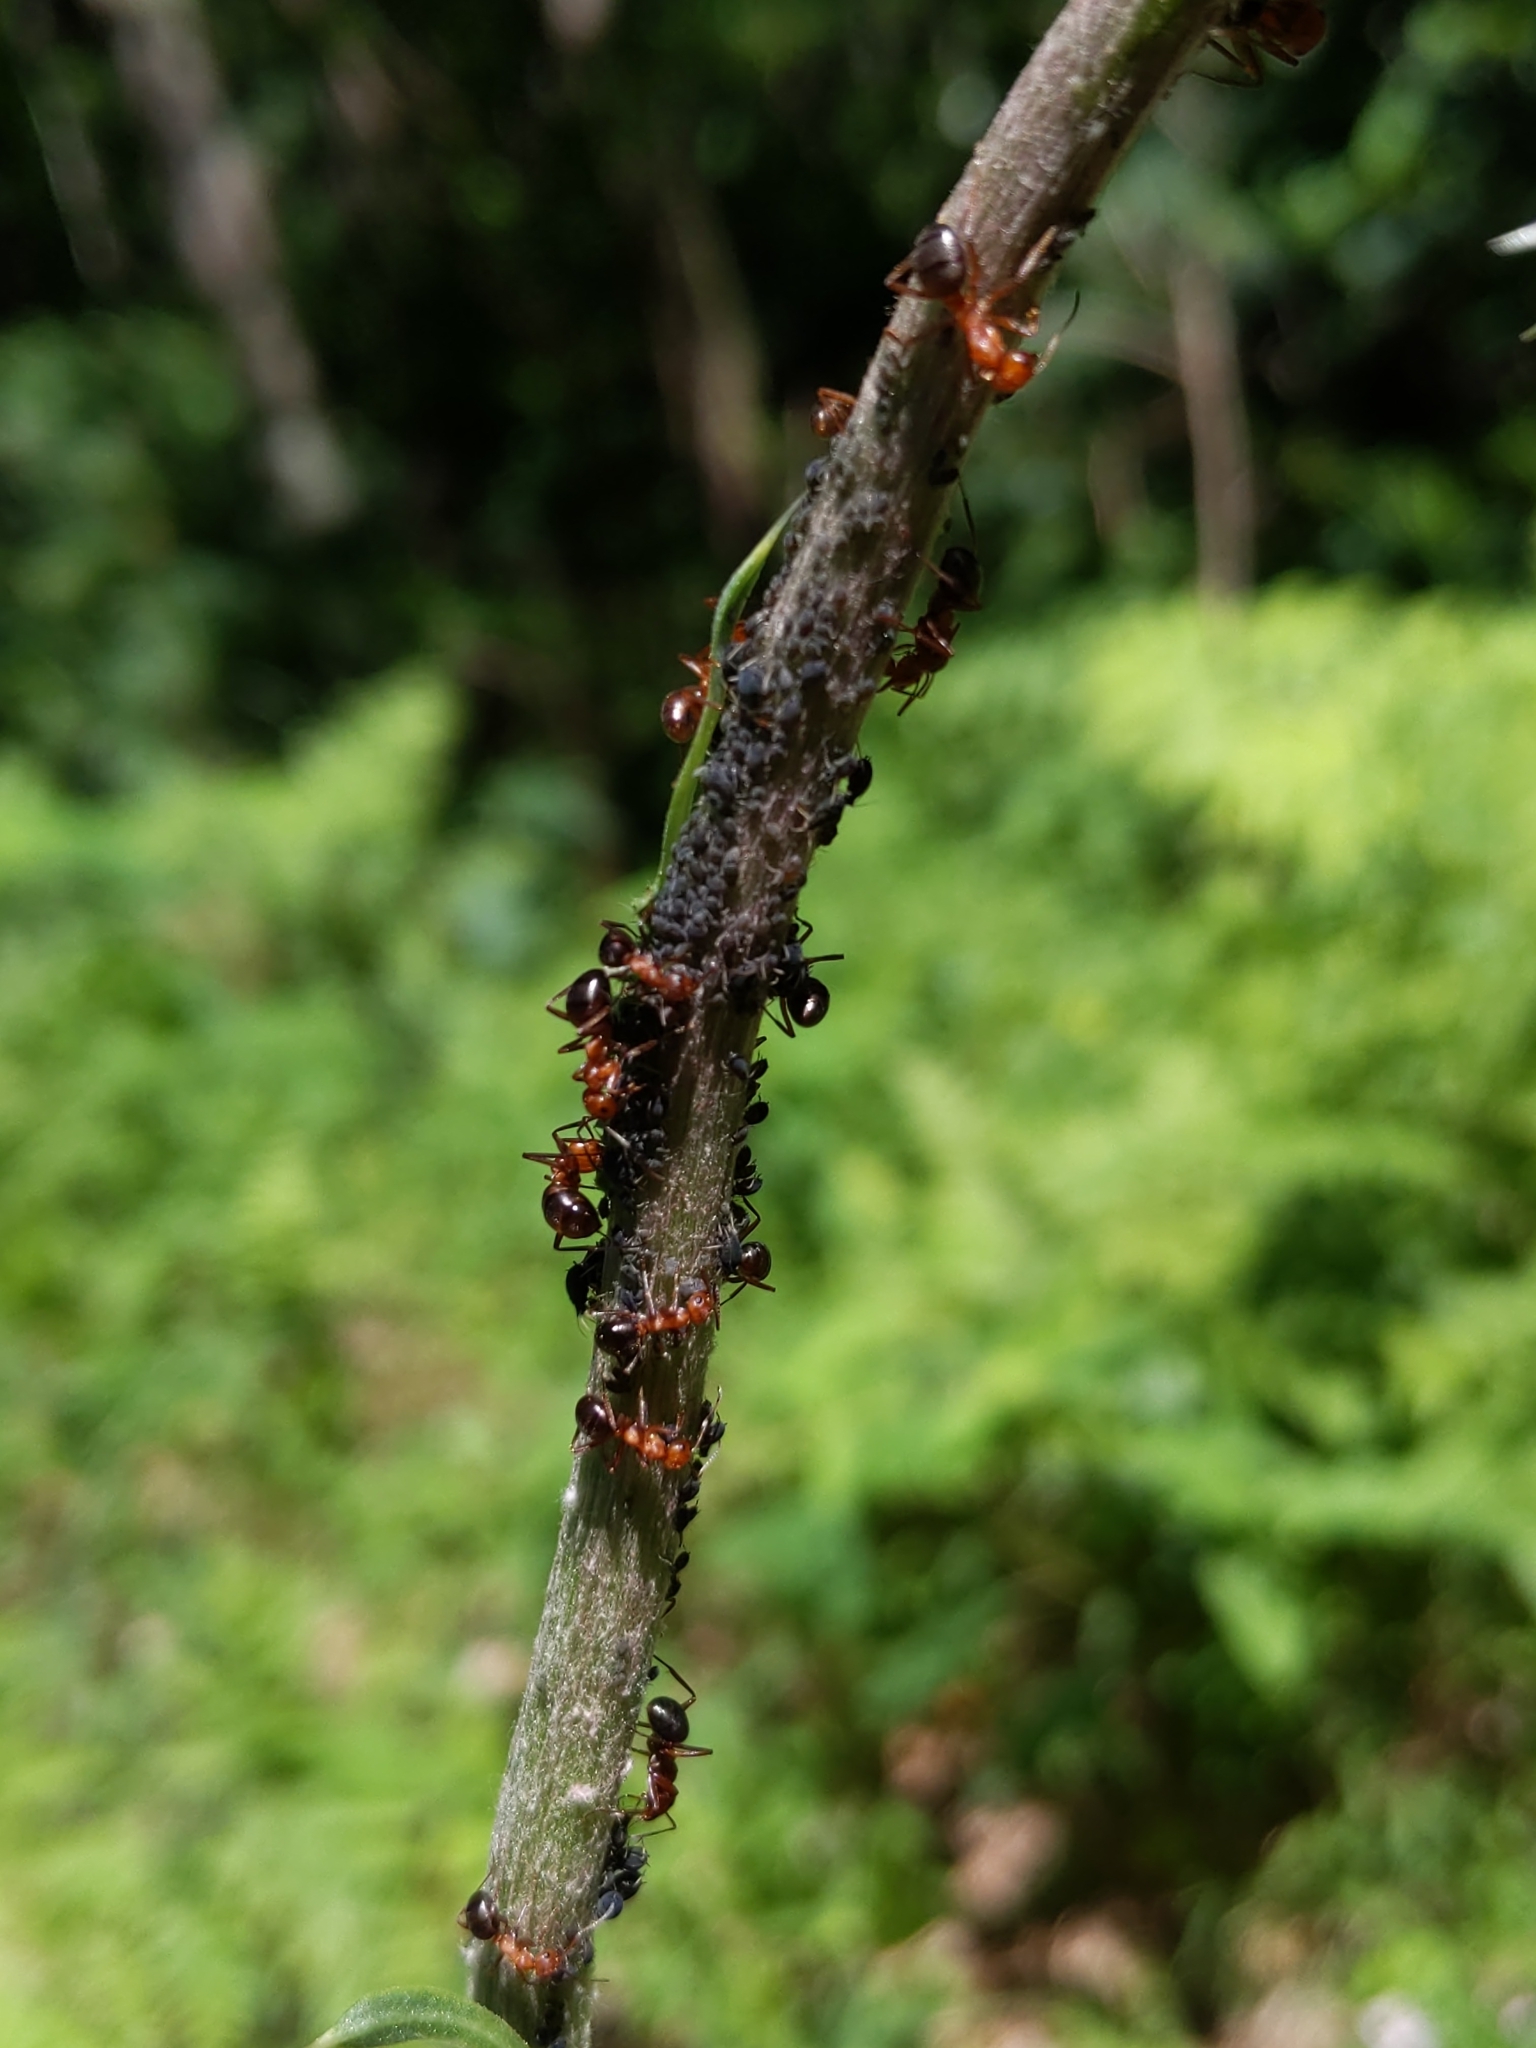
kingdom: Animalia
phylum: Arthropoda
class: Insecta
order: Hymenoptera
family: Formicidae
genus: Formica
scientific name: Formica
